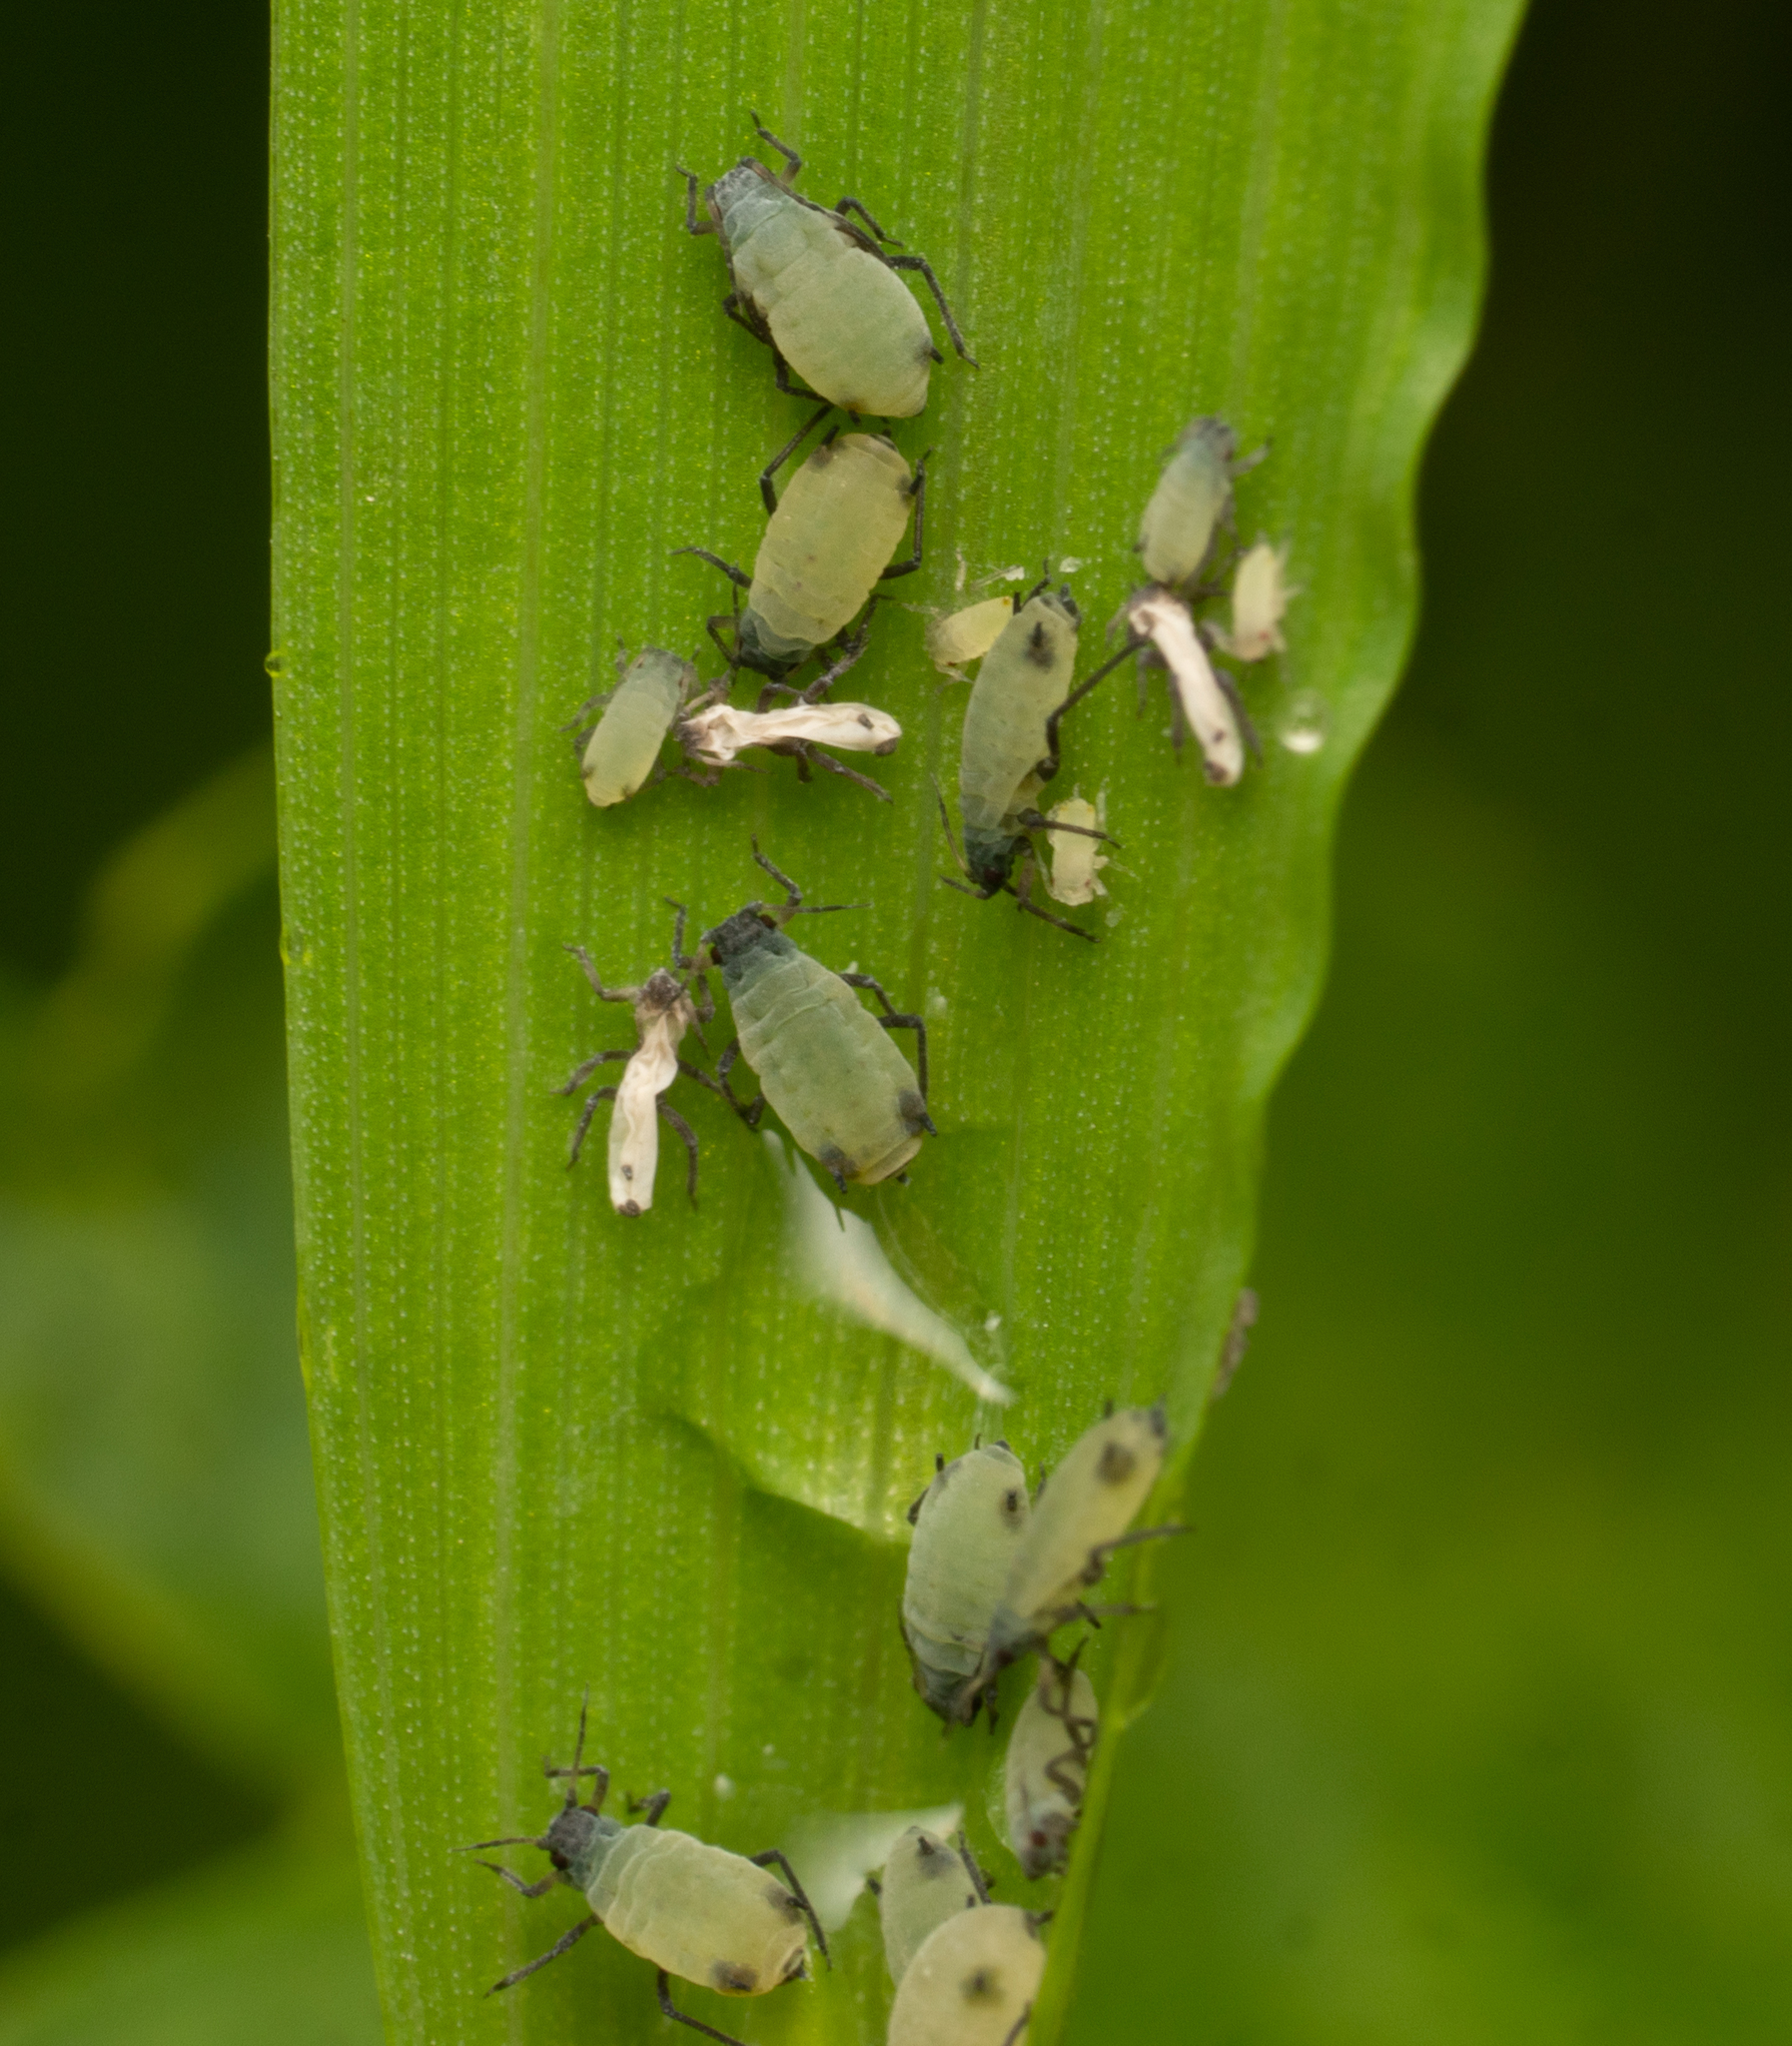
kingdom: Animalia
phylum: Arthropoda
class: Insecta
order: Hemiptera
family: Aphididae
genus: Rhopalosiphum
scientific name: Rhopalosiphum maidis
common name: Corn leaf aphid
